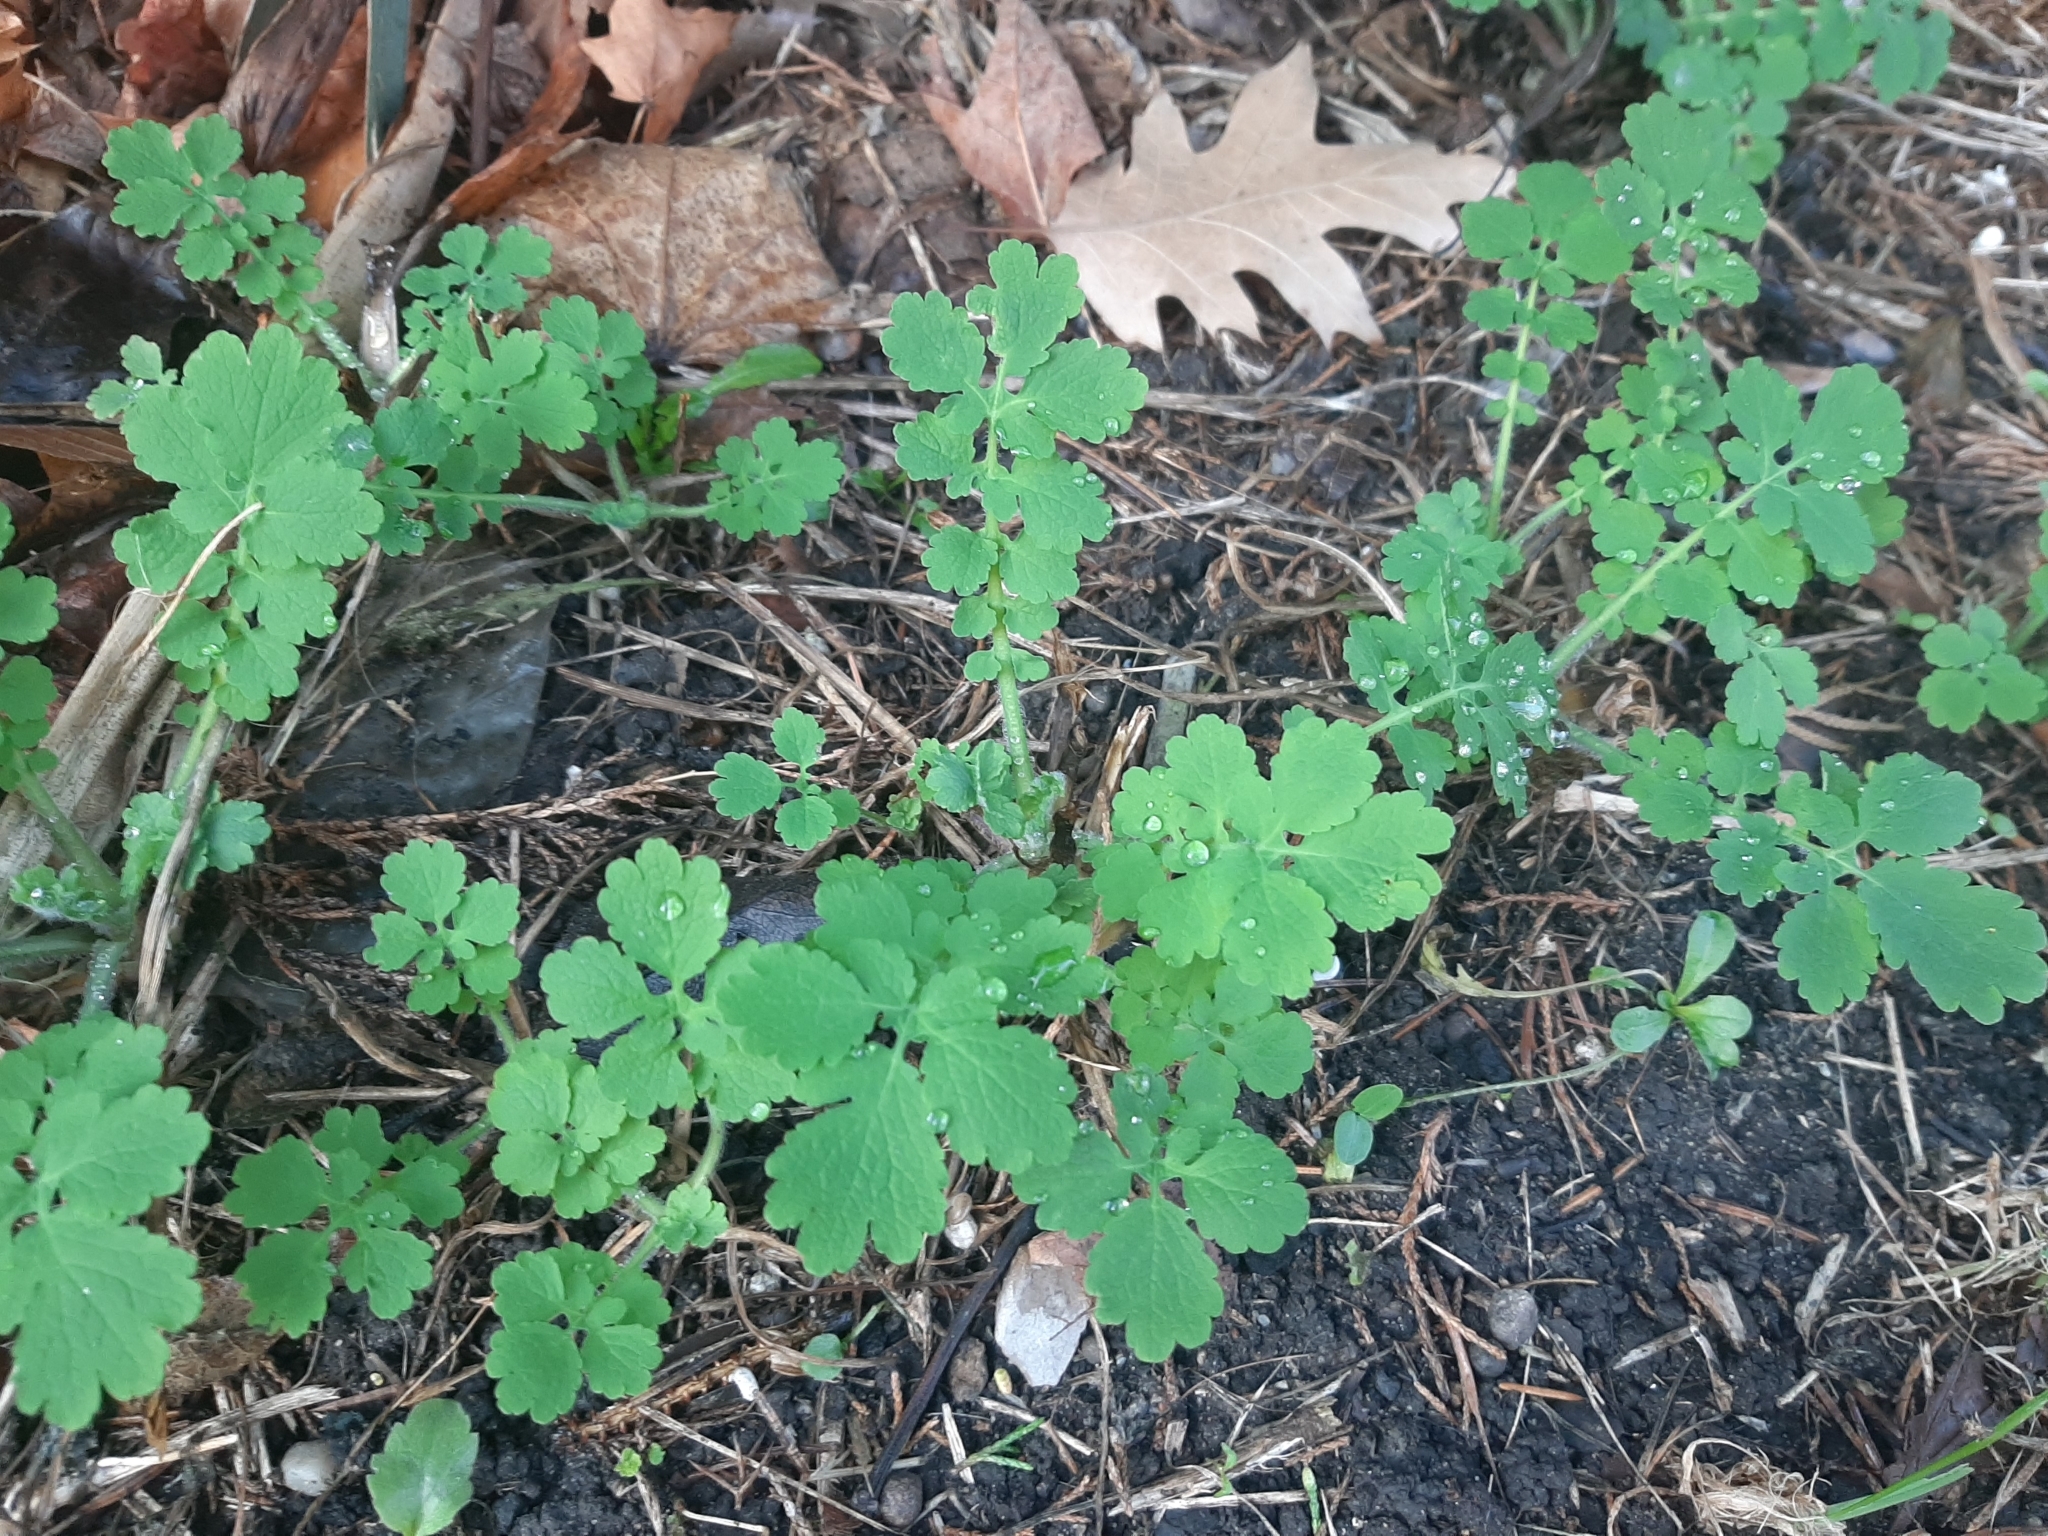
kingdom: Plantae
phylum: Tracheophyta
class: Magnoliopsida
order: Ranunculales
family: Papaveraceae
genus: Chelidonium
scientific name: Chelidonium majus
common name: Greater celandine
